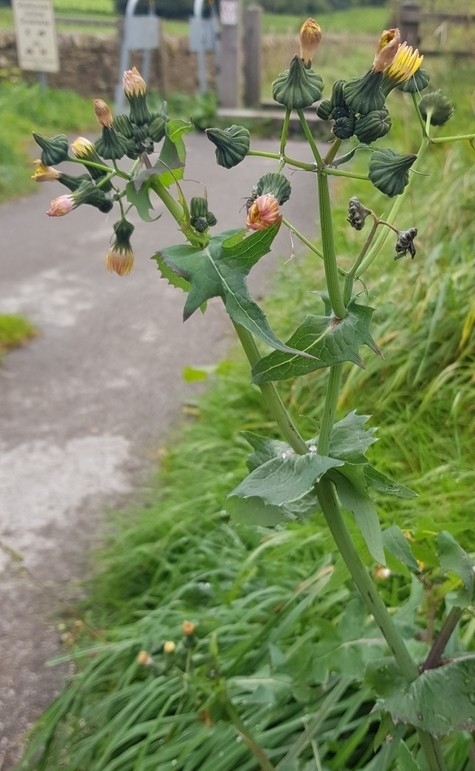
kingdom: Plantae
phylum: Tracheophyta
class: Magnoliopsida
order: Asterales
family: Asteraceae
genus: Sonchus
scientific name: Sonchus oleraceus
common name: Common sowthistle
